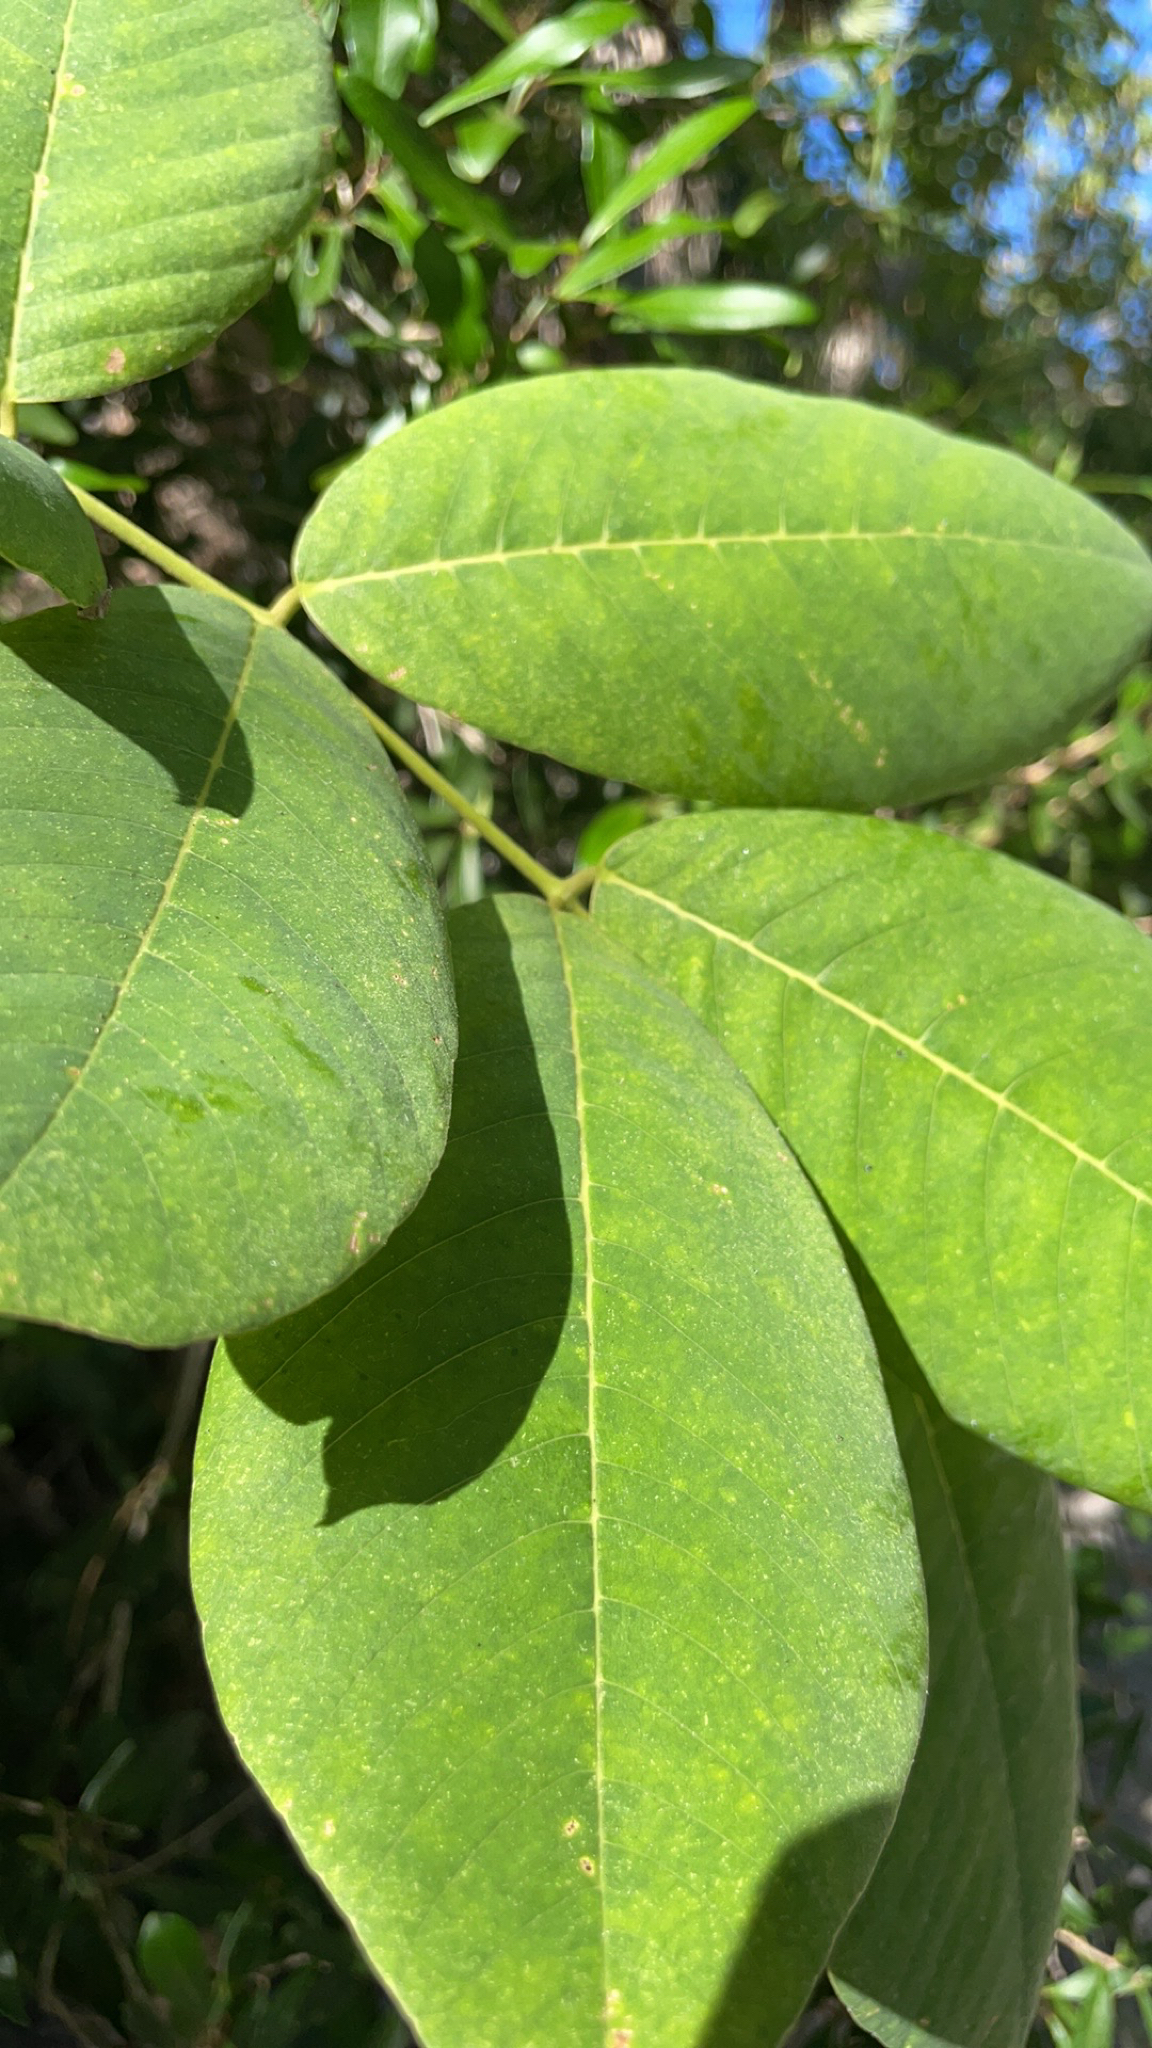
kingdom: Plantae
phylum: Tracheophyta
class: Magnoliopsida
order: Fabales
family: Fabaceae
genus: Piscidia
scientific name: Piscidia piscipula
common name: Florida fishpoison tree
